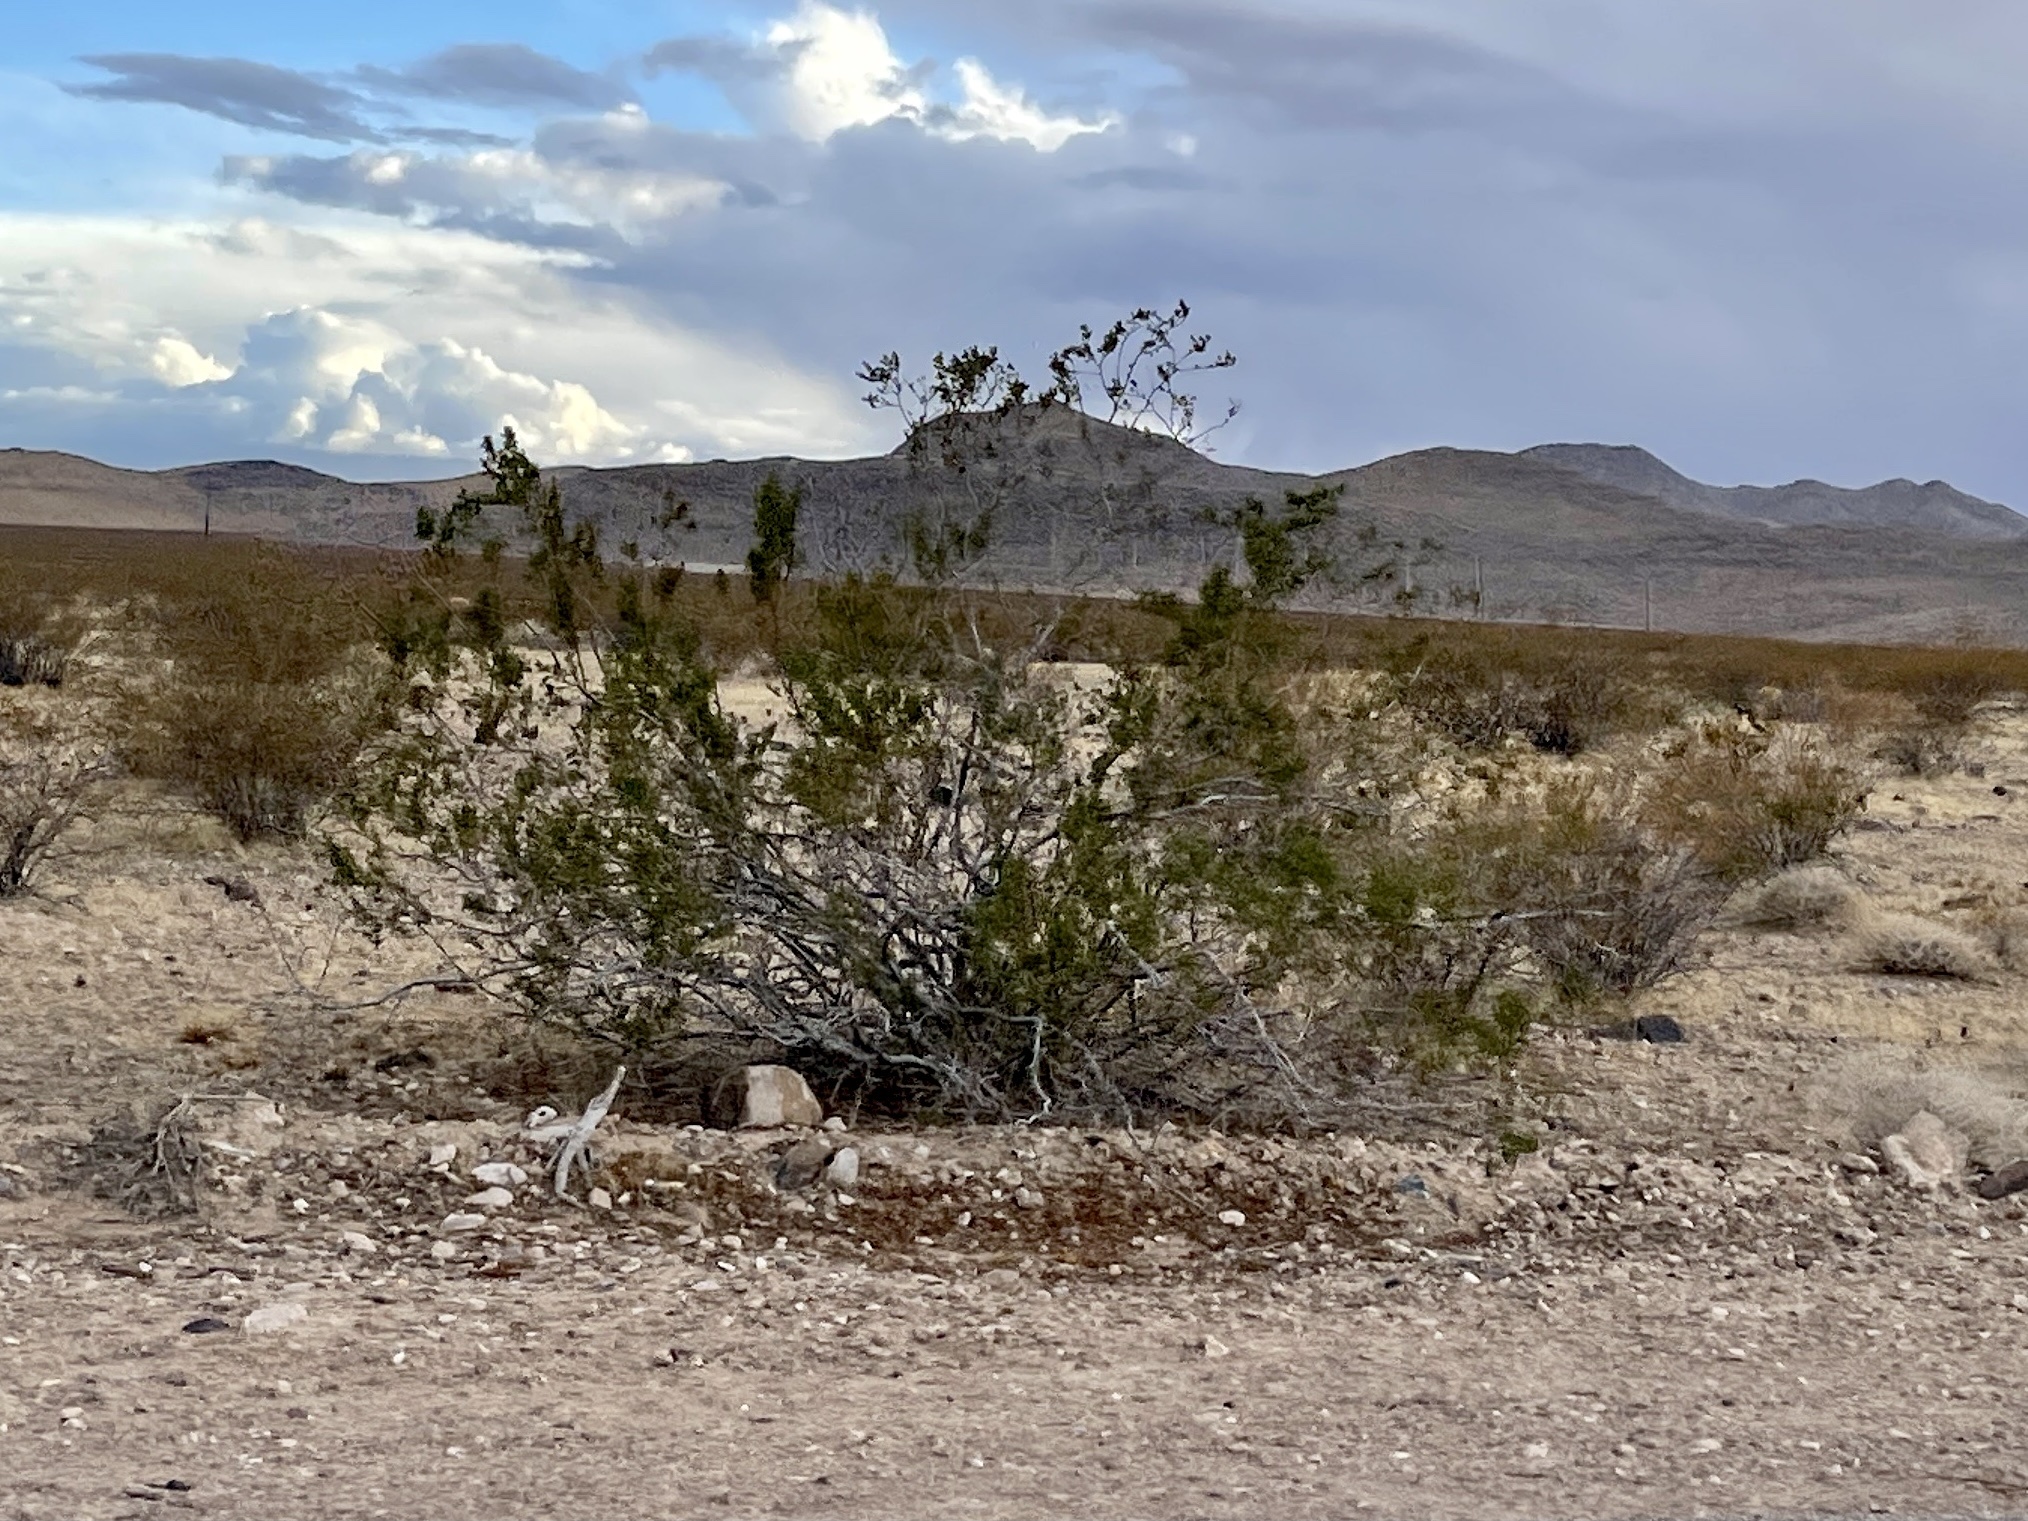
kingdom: Plantae
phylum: Tracheophyta
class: Magnoliopsida
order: Zygophyllales
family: Zygophyllaceae
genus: Larrea
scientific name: Larrea tridentata
